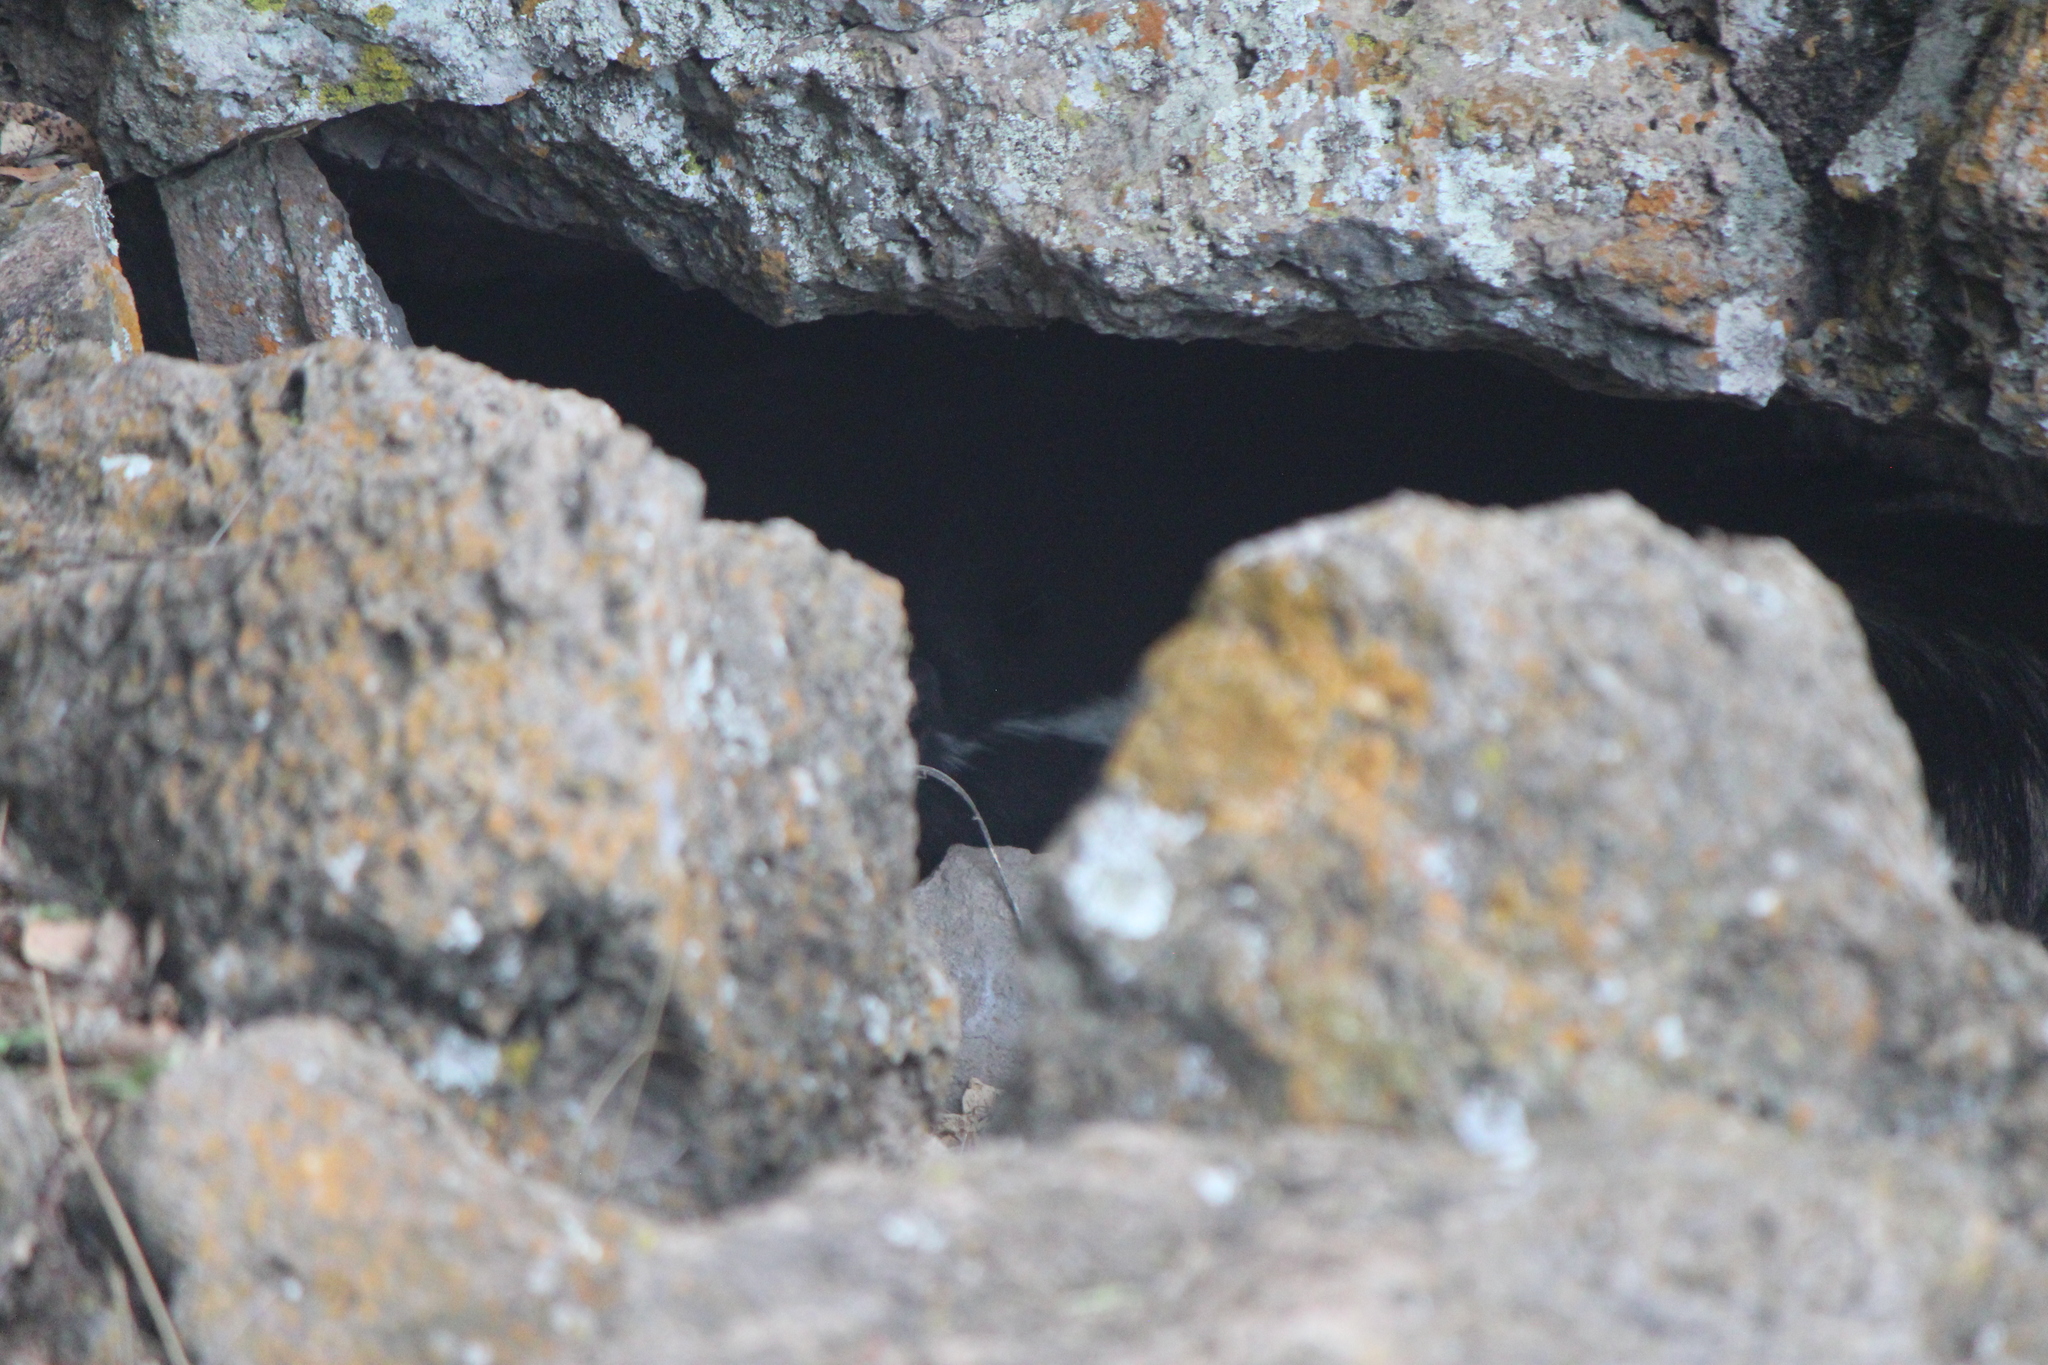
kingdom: Animalia
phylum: Chordata
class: Mammalia
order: Carnivora
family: Mephitidae
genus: Mephitis
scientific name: Mephitis macroura
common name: Hooded skunk
